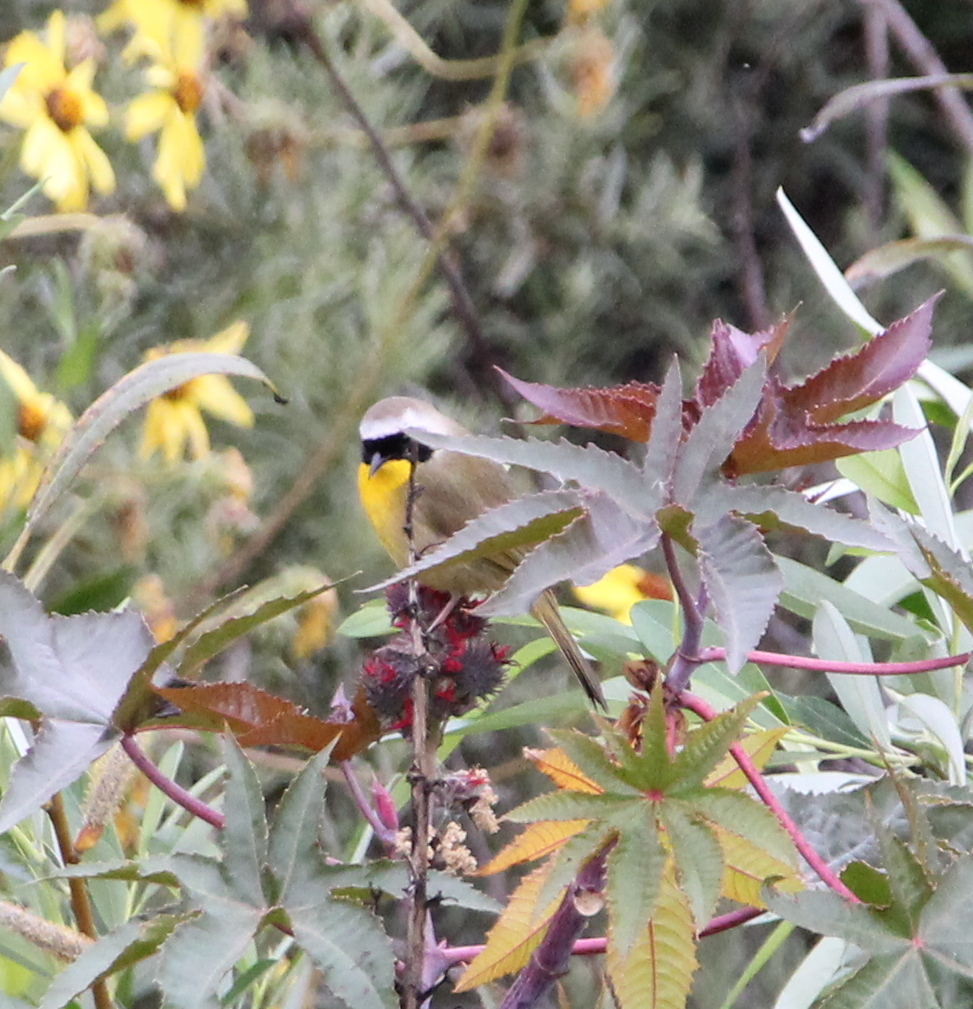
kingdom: Animalia
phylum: Chordata
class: Aves
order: Passeriformes
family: Parulidae
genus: Geothlypis
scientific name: Geothlypis trichas
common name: Common yellowthroat
